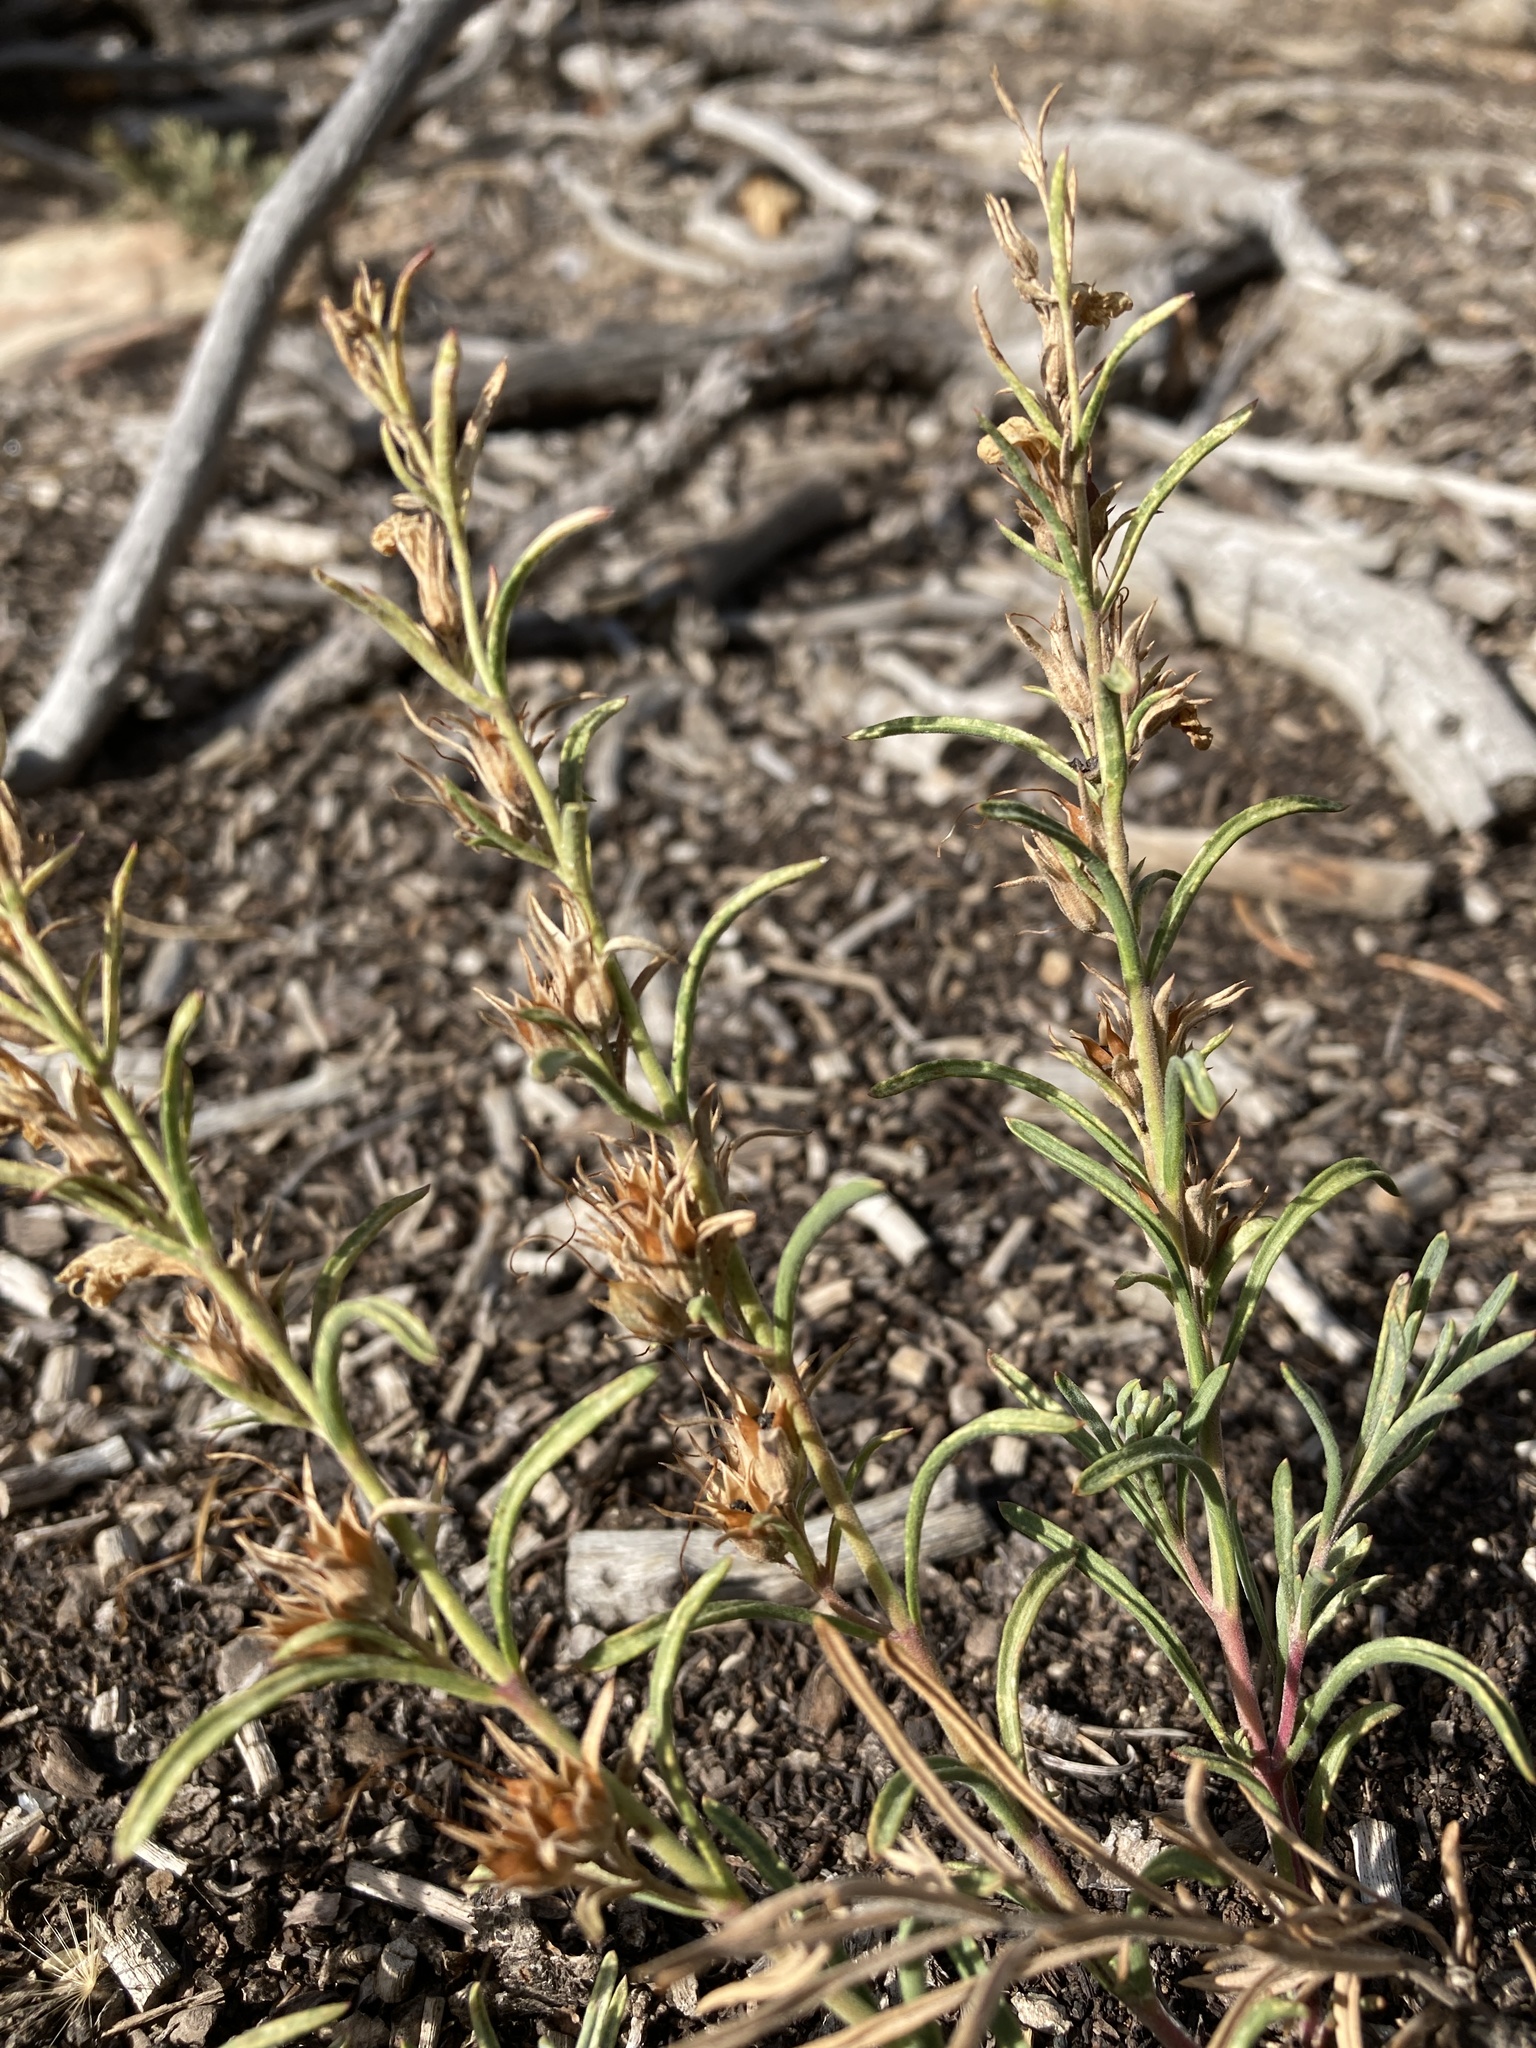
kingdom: Plantae
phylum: Tracheophyta
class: Magnoliopsida
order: Lamiales
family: Plantaginaceae
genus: Penstemon
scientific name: Penstemon linarioides
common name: Siler's penstemon
